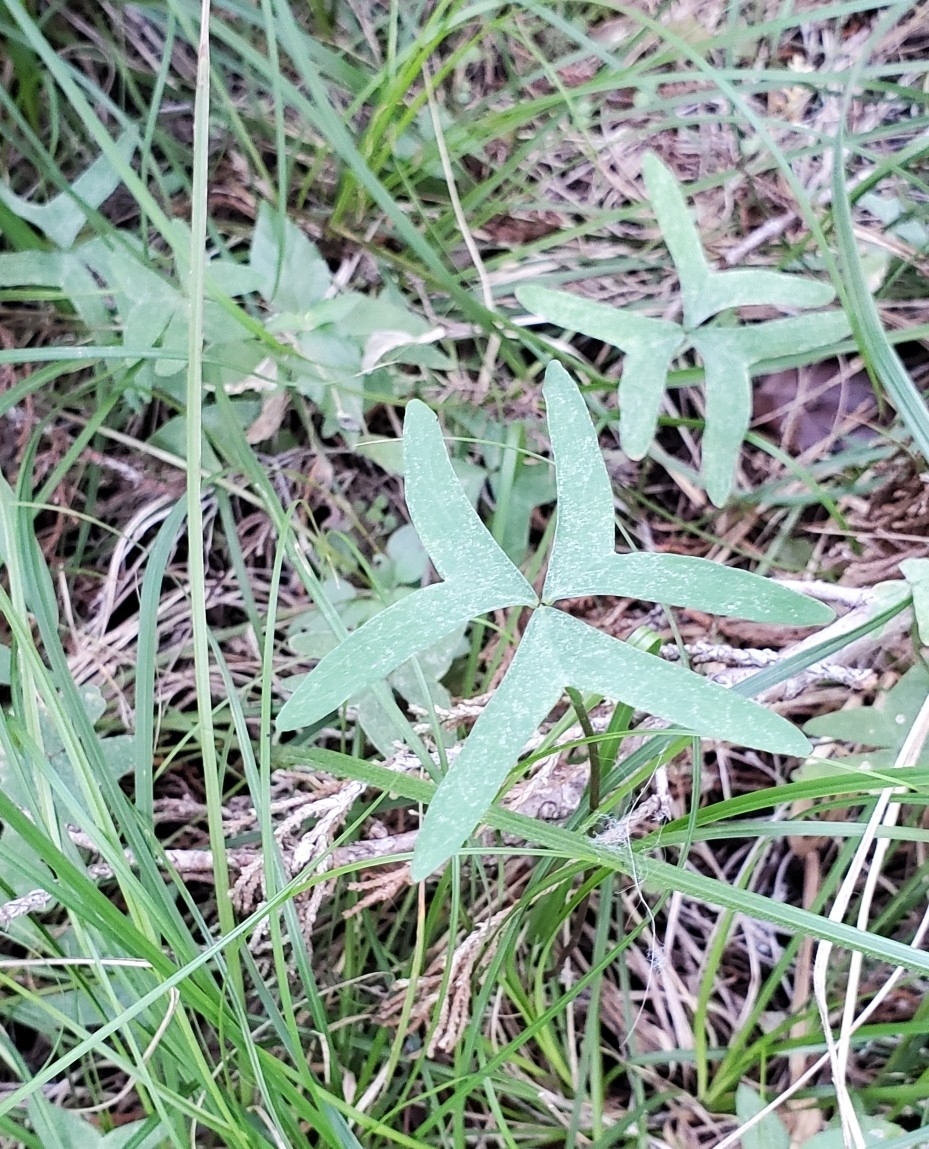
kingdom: Plantae
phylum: Tracheophyta
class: Magnoliopsida
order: Oxalidales
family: Oxalidaceae
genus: Oxalis
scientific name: Oxalis drummondii
